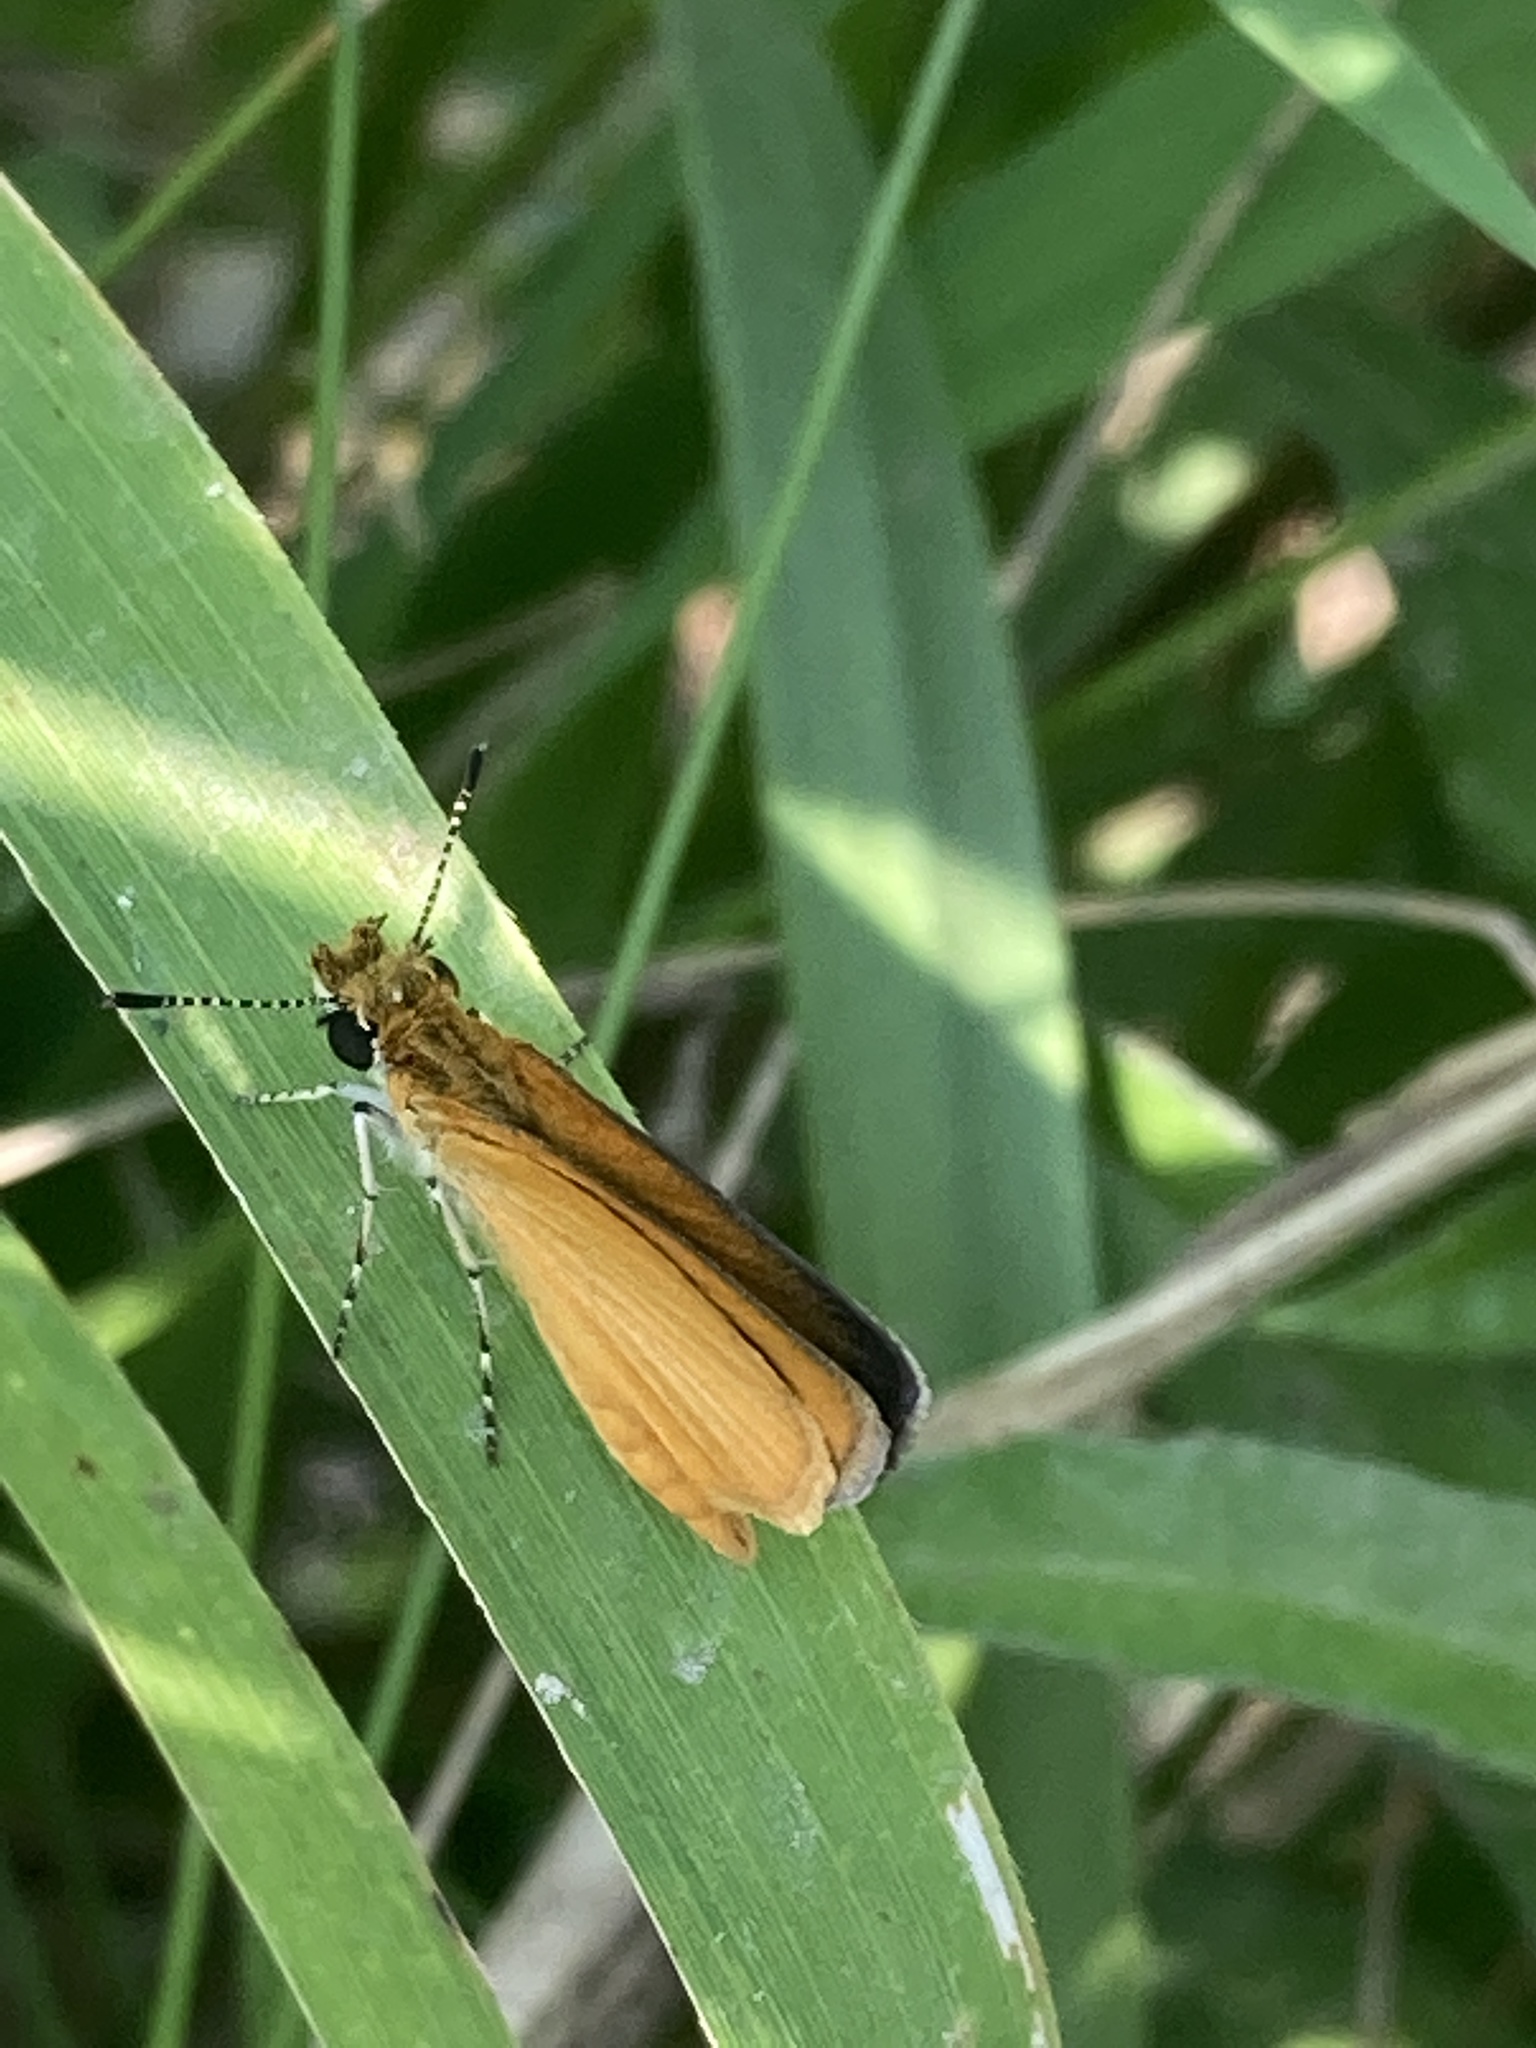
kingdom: Animalia
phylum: Arthropoda
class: Insecta
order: Lepidoptera
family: Hesperiidae
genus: Ancyloxypha
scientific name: Ancyloxypha numitor
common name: Least skipper
